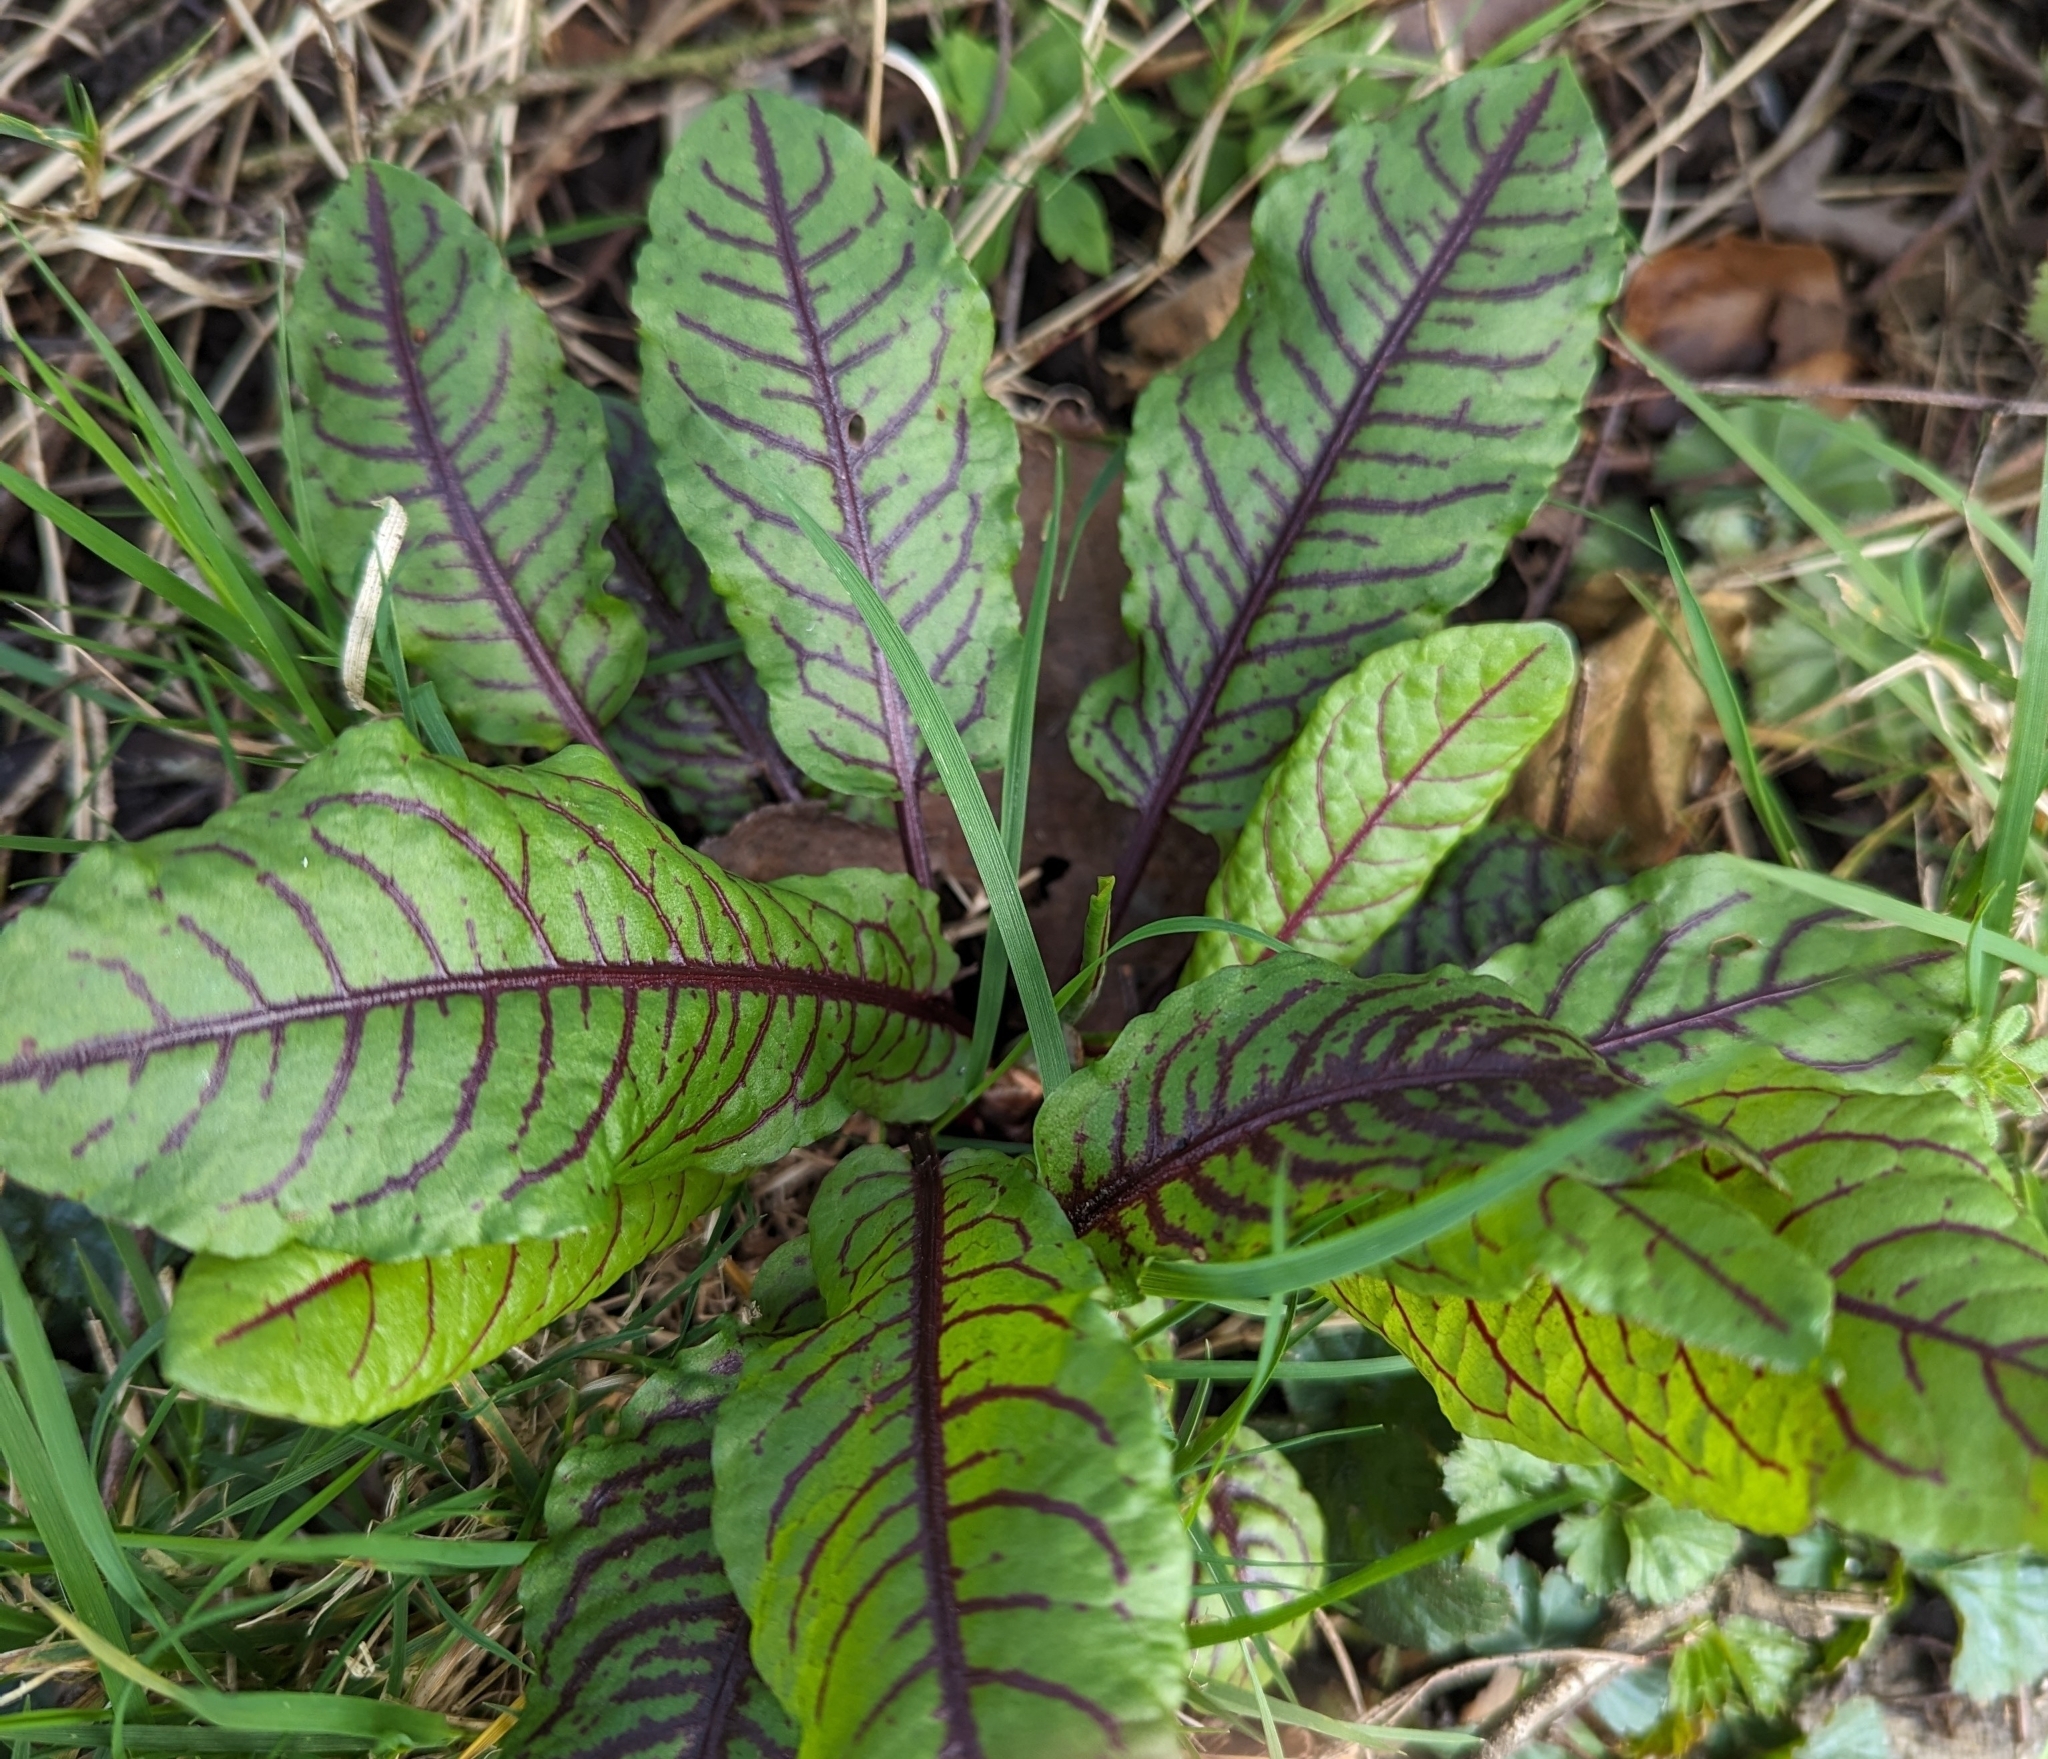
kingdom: Plantae
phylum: Tracheophyta
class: Magnoliopsida
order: Caryophyllales
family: Polygonaceae
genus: Rumex
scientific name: Rumex sanguineus
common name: Wood dock
